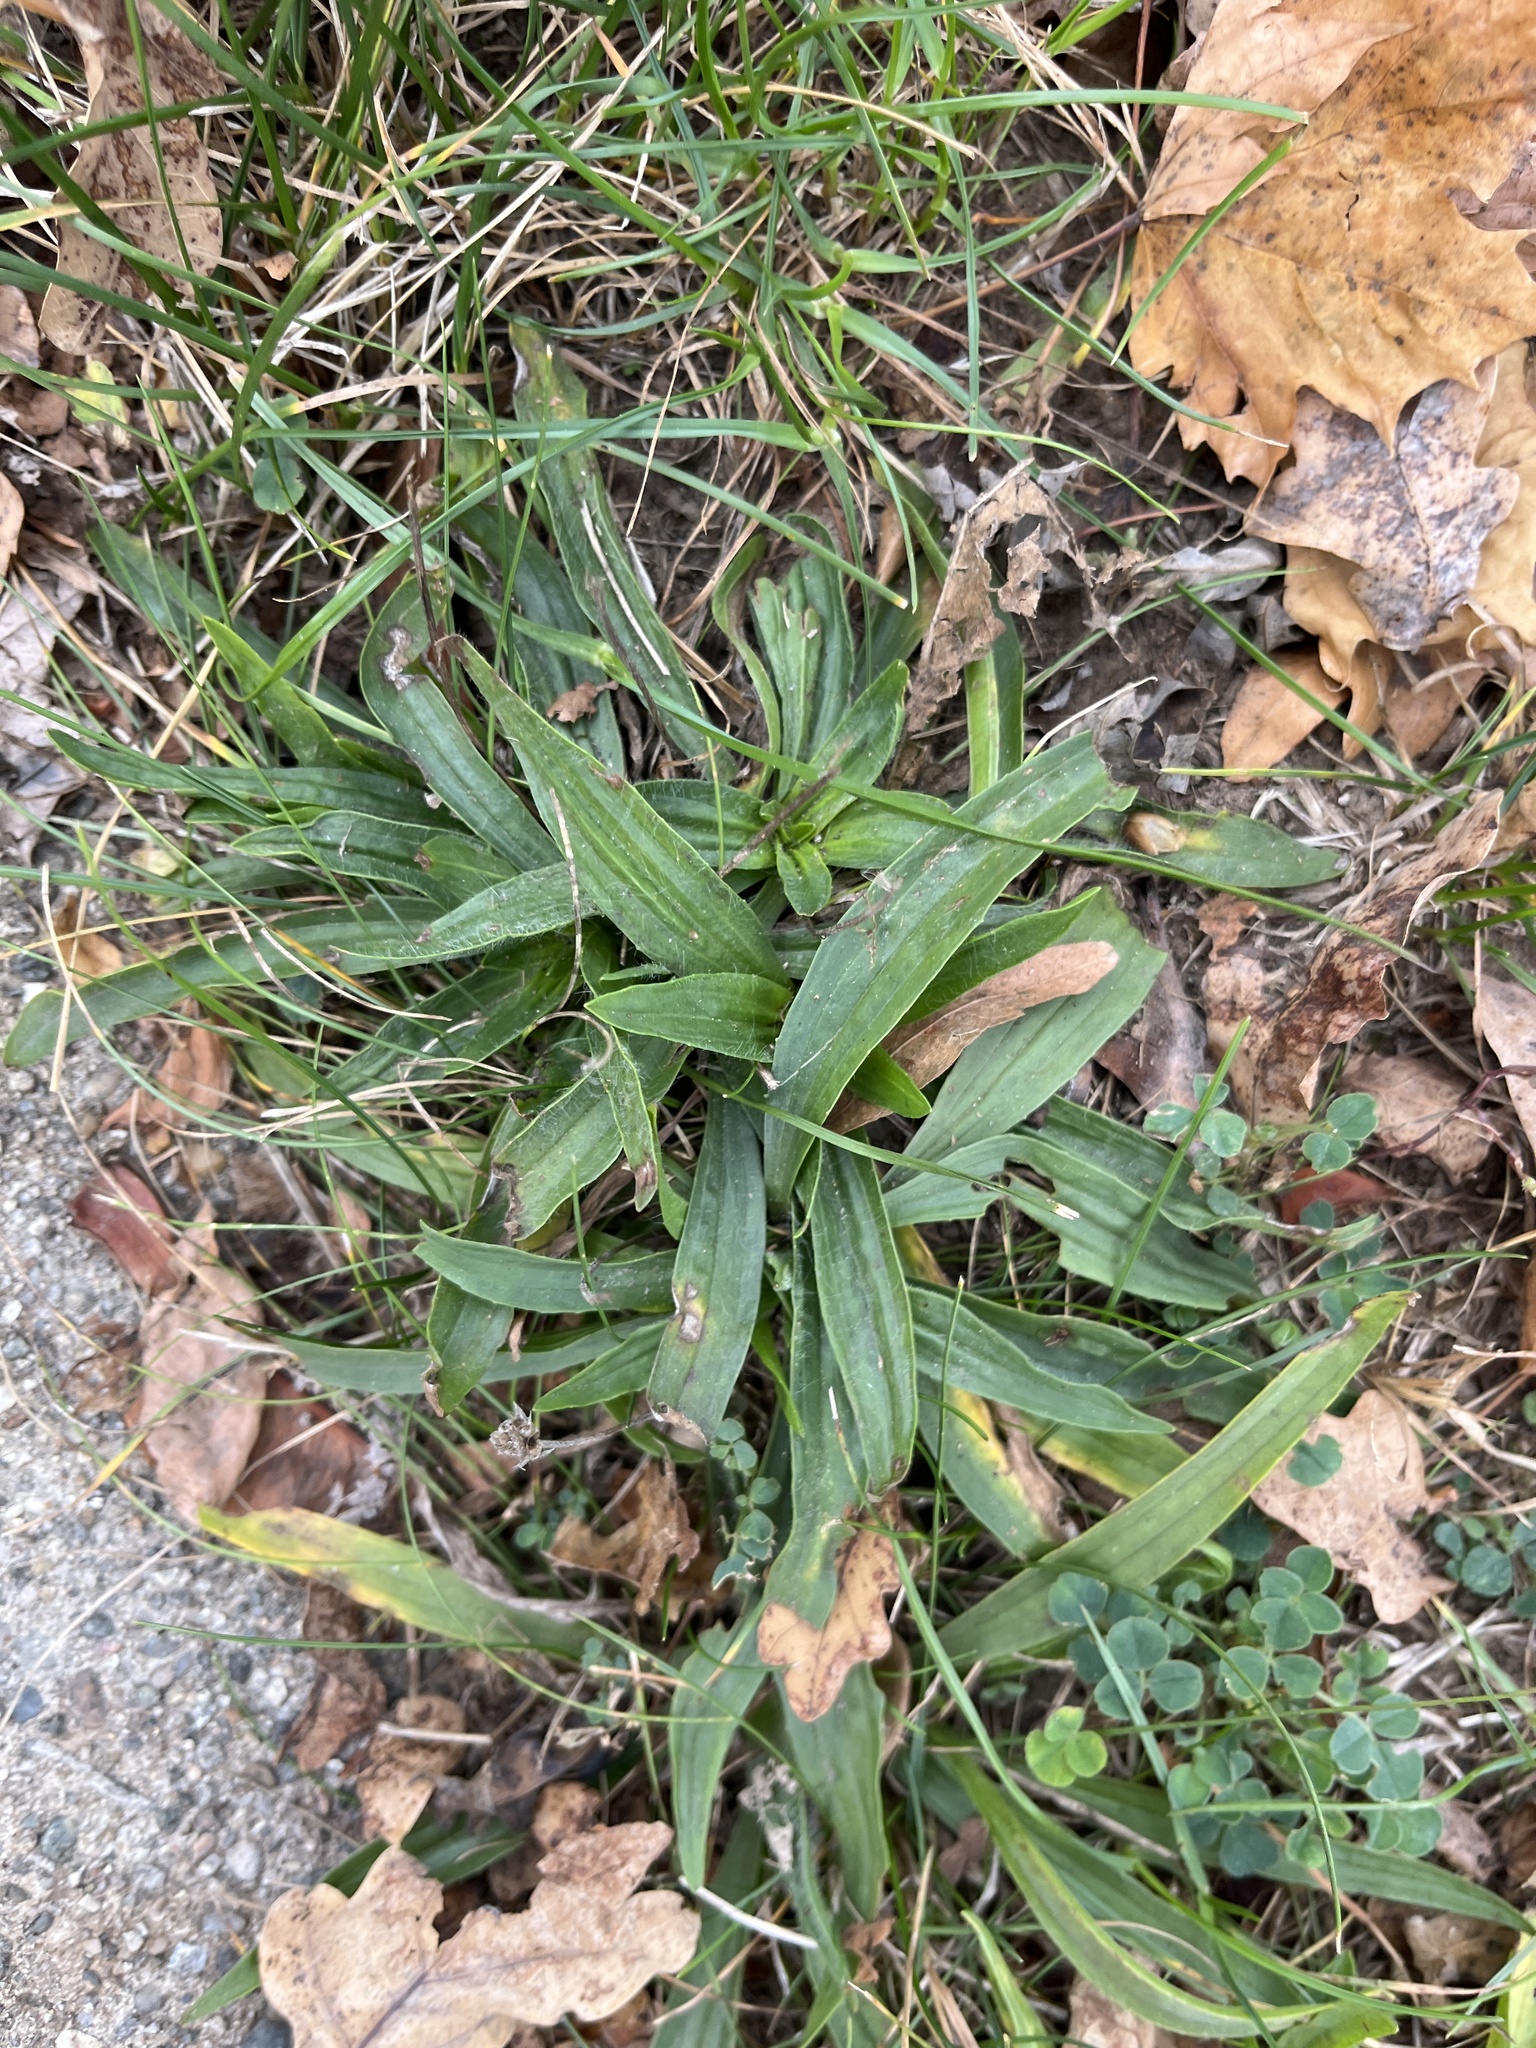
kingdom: Plantae
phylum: Tracheophyta
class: Magnoliopsida
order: Lamiales
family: Plantaginaceae
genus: Plantago
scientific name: Plantago lanceolata
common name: Ribwort plantain
